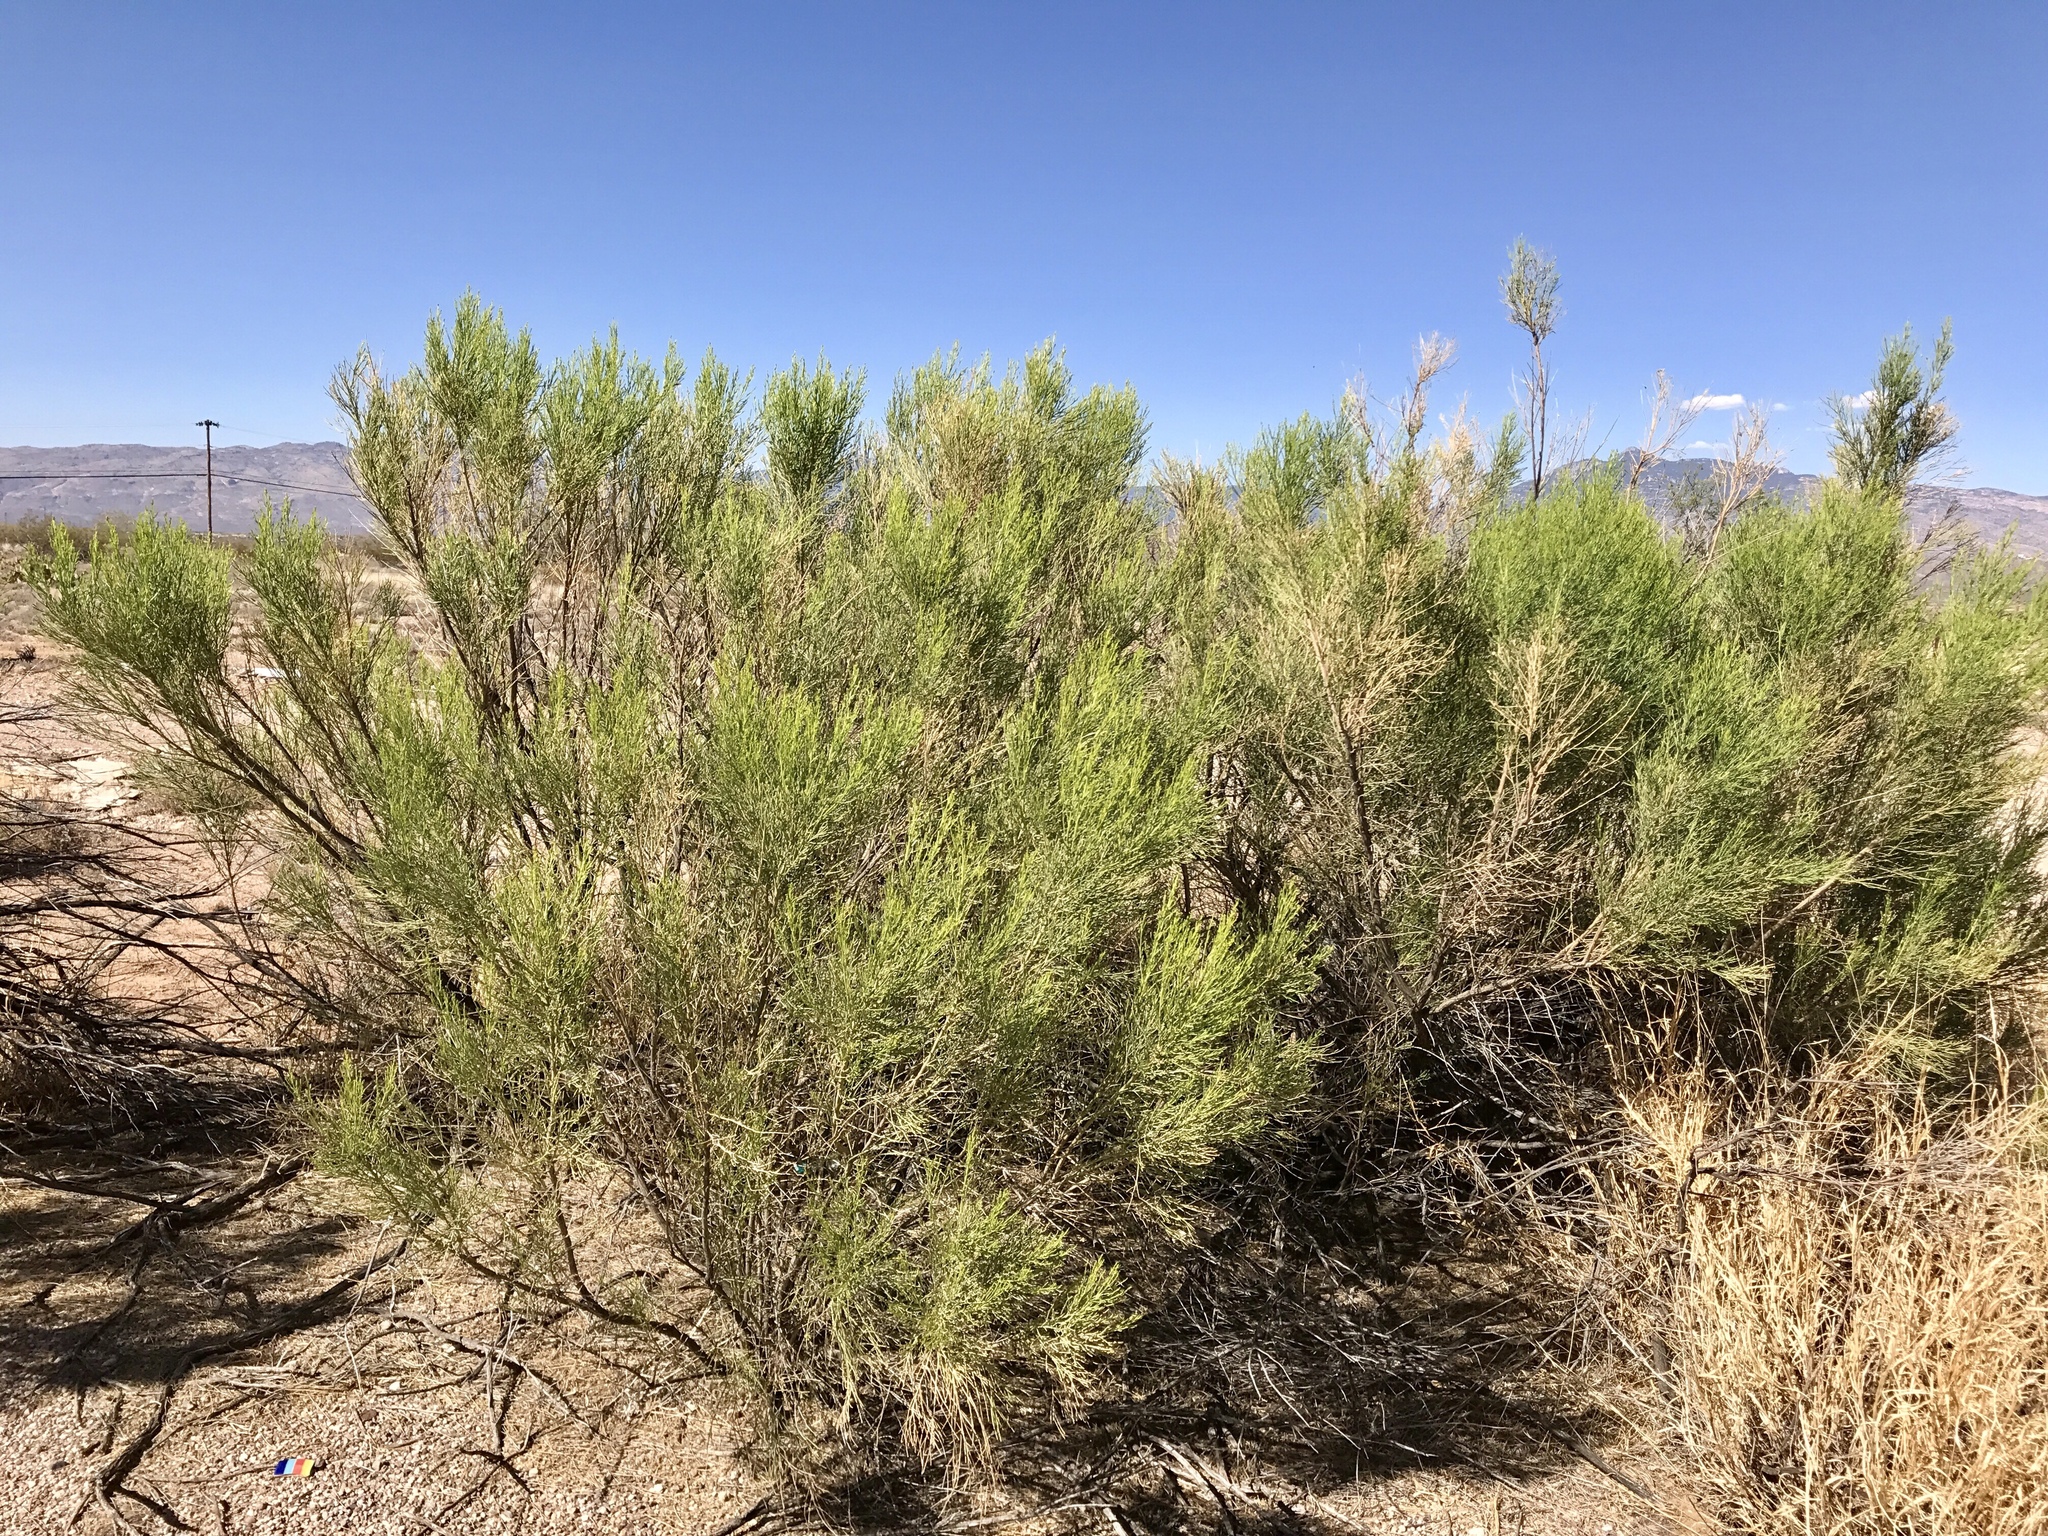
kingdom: Plantae
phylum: Tracheophyta
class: Magnoliopsida
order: Asterales
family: Asteraceae
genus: Baccharis
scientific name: Baccharis sarothroides
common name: Desert-broom
